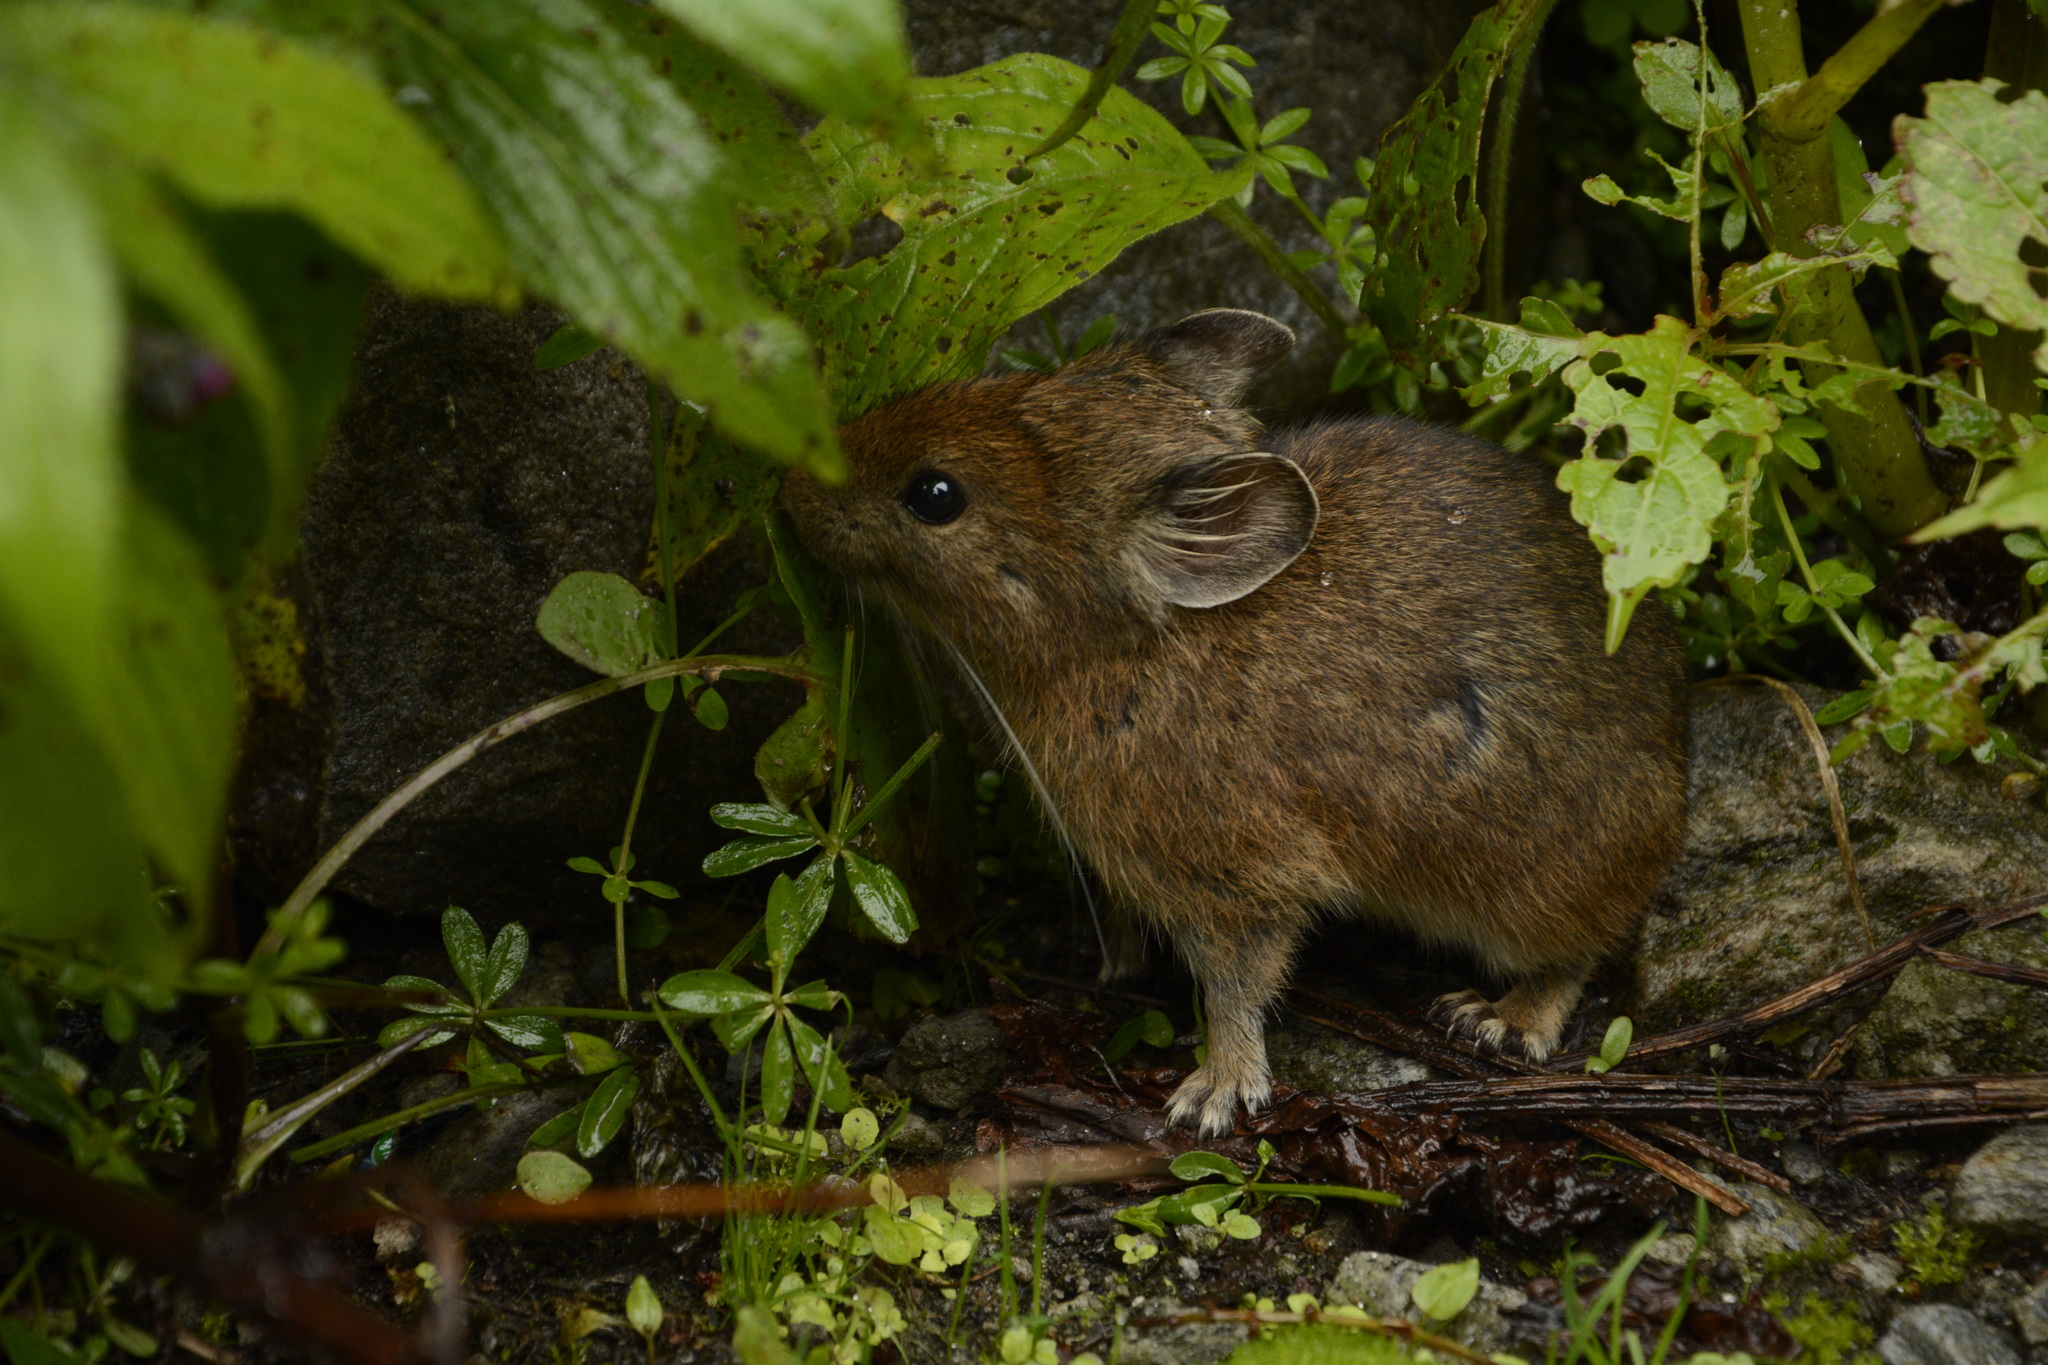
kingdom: Animalia
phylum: Chordata
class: Mammalia
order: Lagomorpha
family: Ochotonidae
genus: Ochotona
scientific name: Ochotona roylii
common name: Royle s pika
